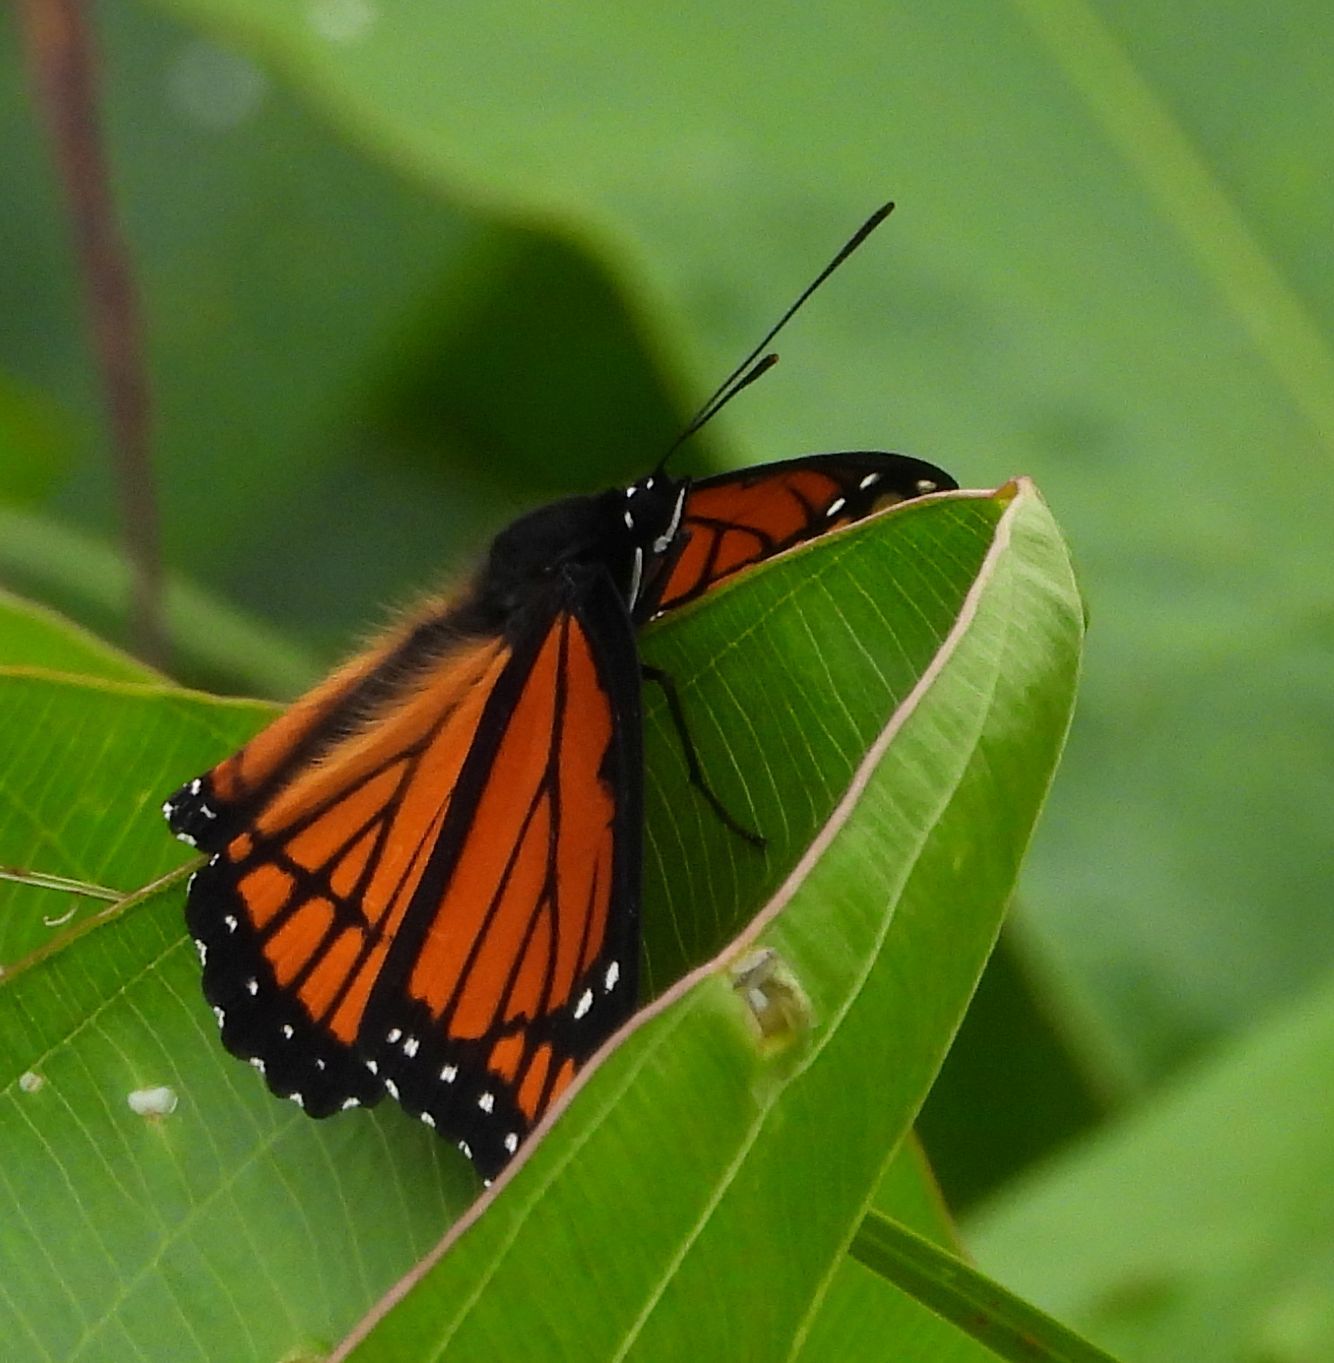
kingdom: Animalia
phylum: Arthropoda
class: Insecta
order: Lepidoptera
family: Nymphalidae
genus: Limenitis
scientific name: Limenitis archippus
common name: Viceroy
